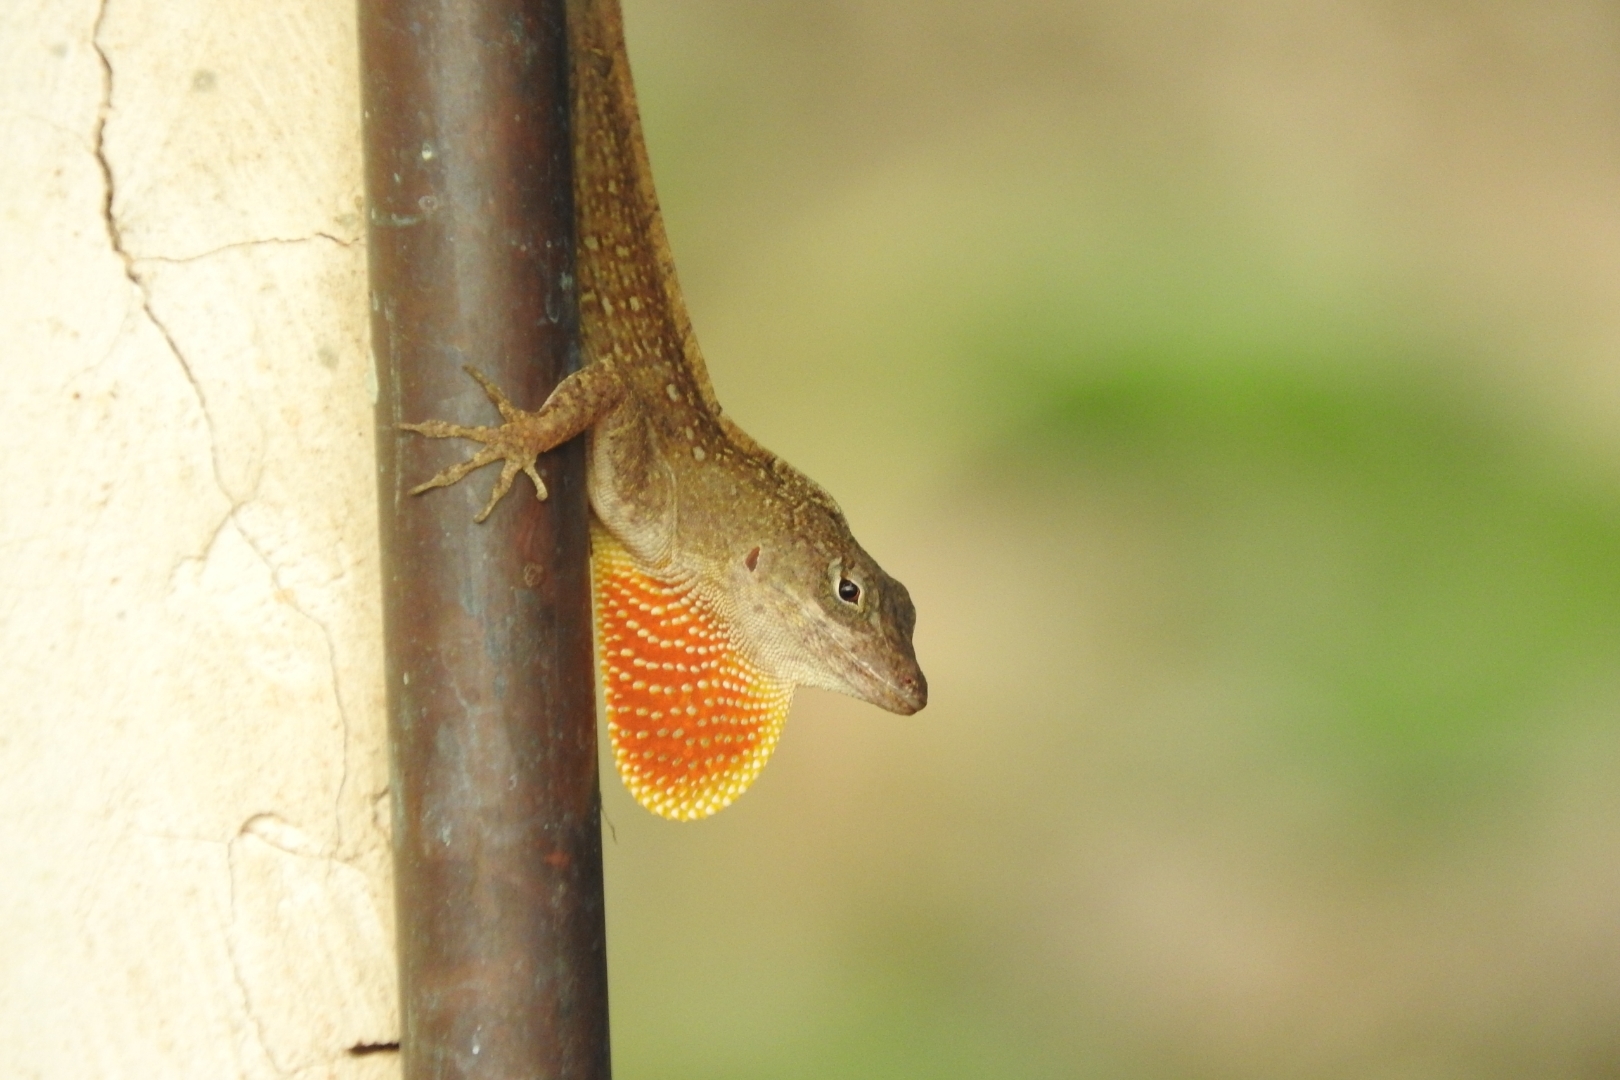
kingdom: Animalia
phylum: Chordata
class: Squamata
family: Dactyloidae
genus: Anolis
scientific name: Anolis sagrei
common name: Brown anole
